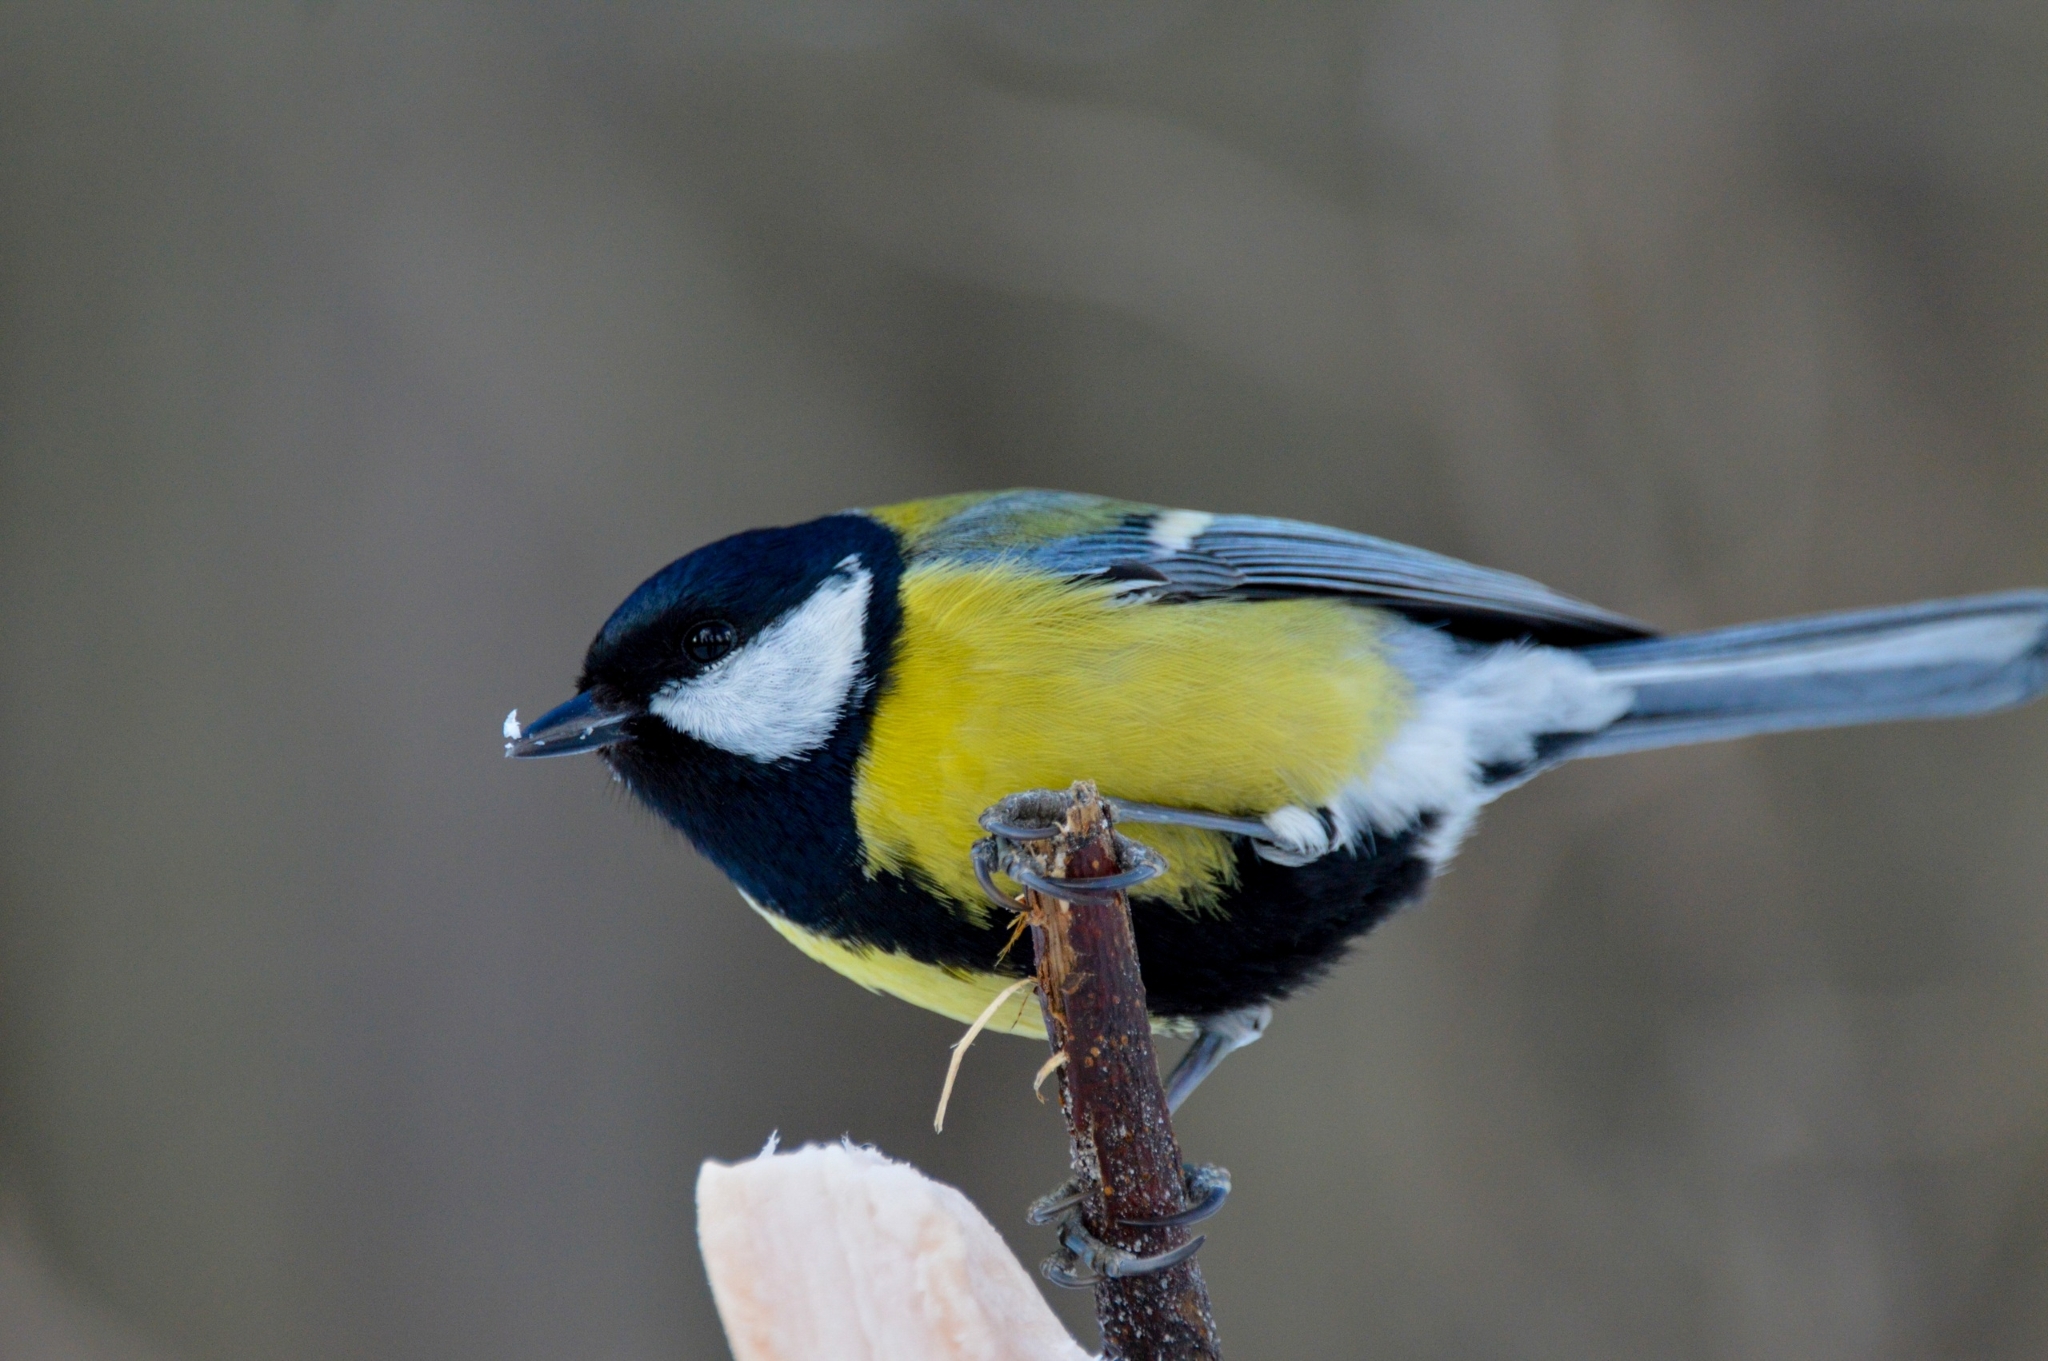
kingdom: Animalia
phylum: Chordata
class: Aves
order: Passeriformes
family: Paridae
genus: Parus
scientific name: Parus major
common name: Great tit
